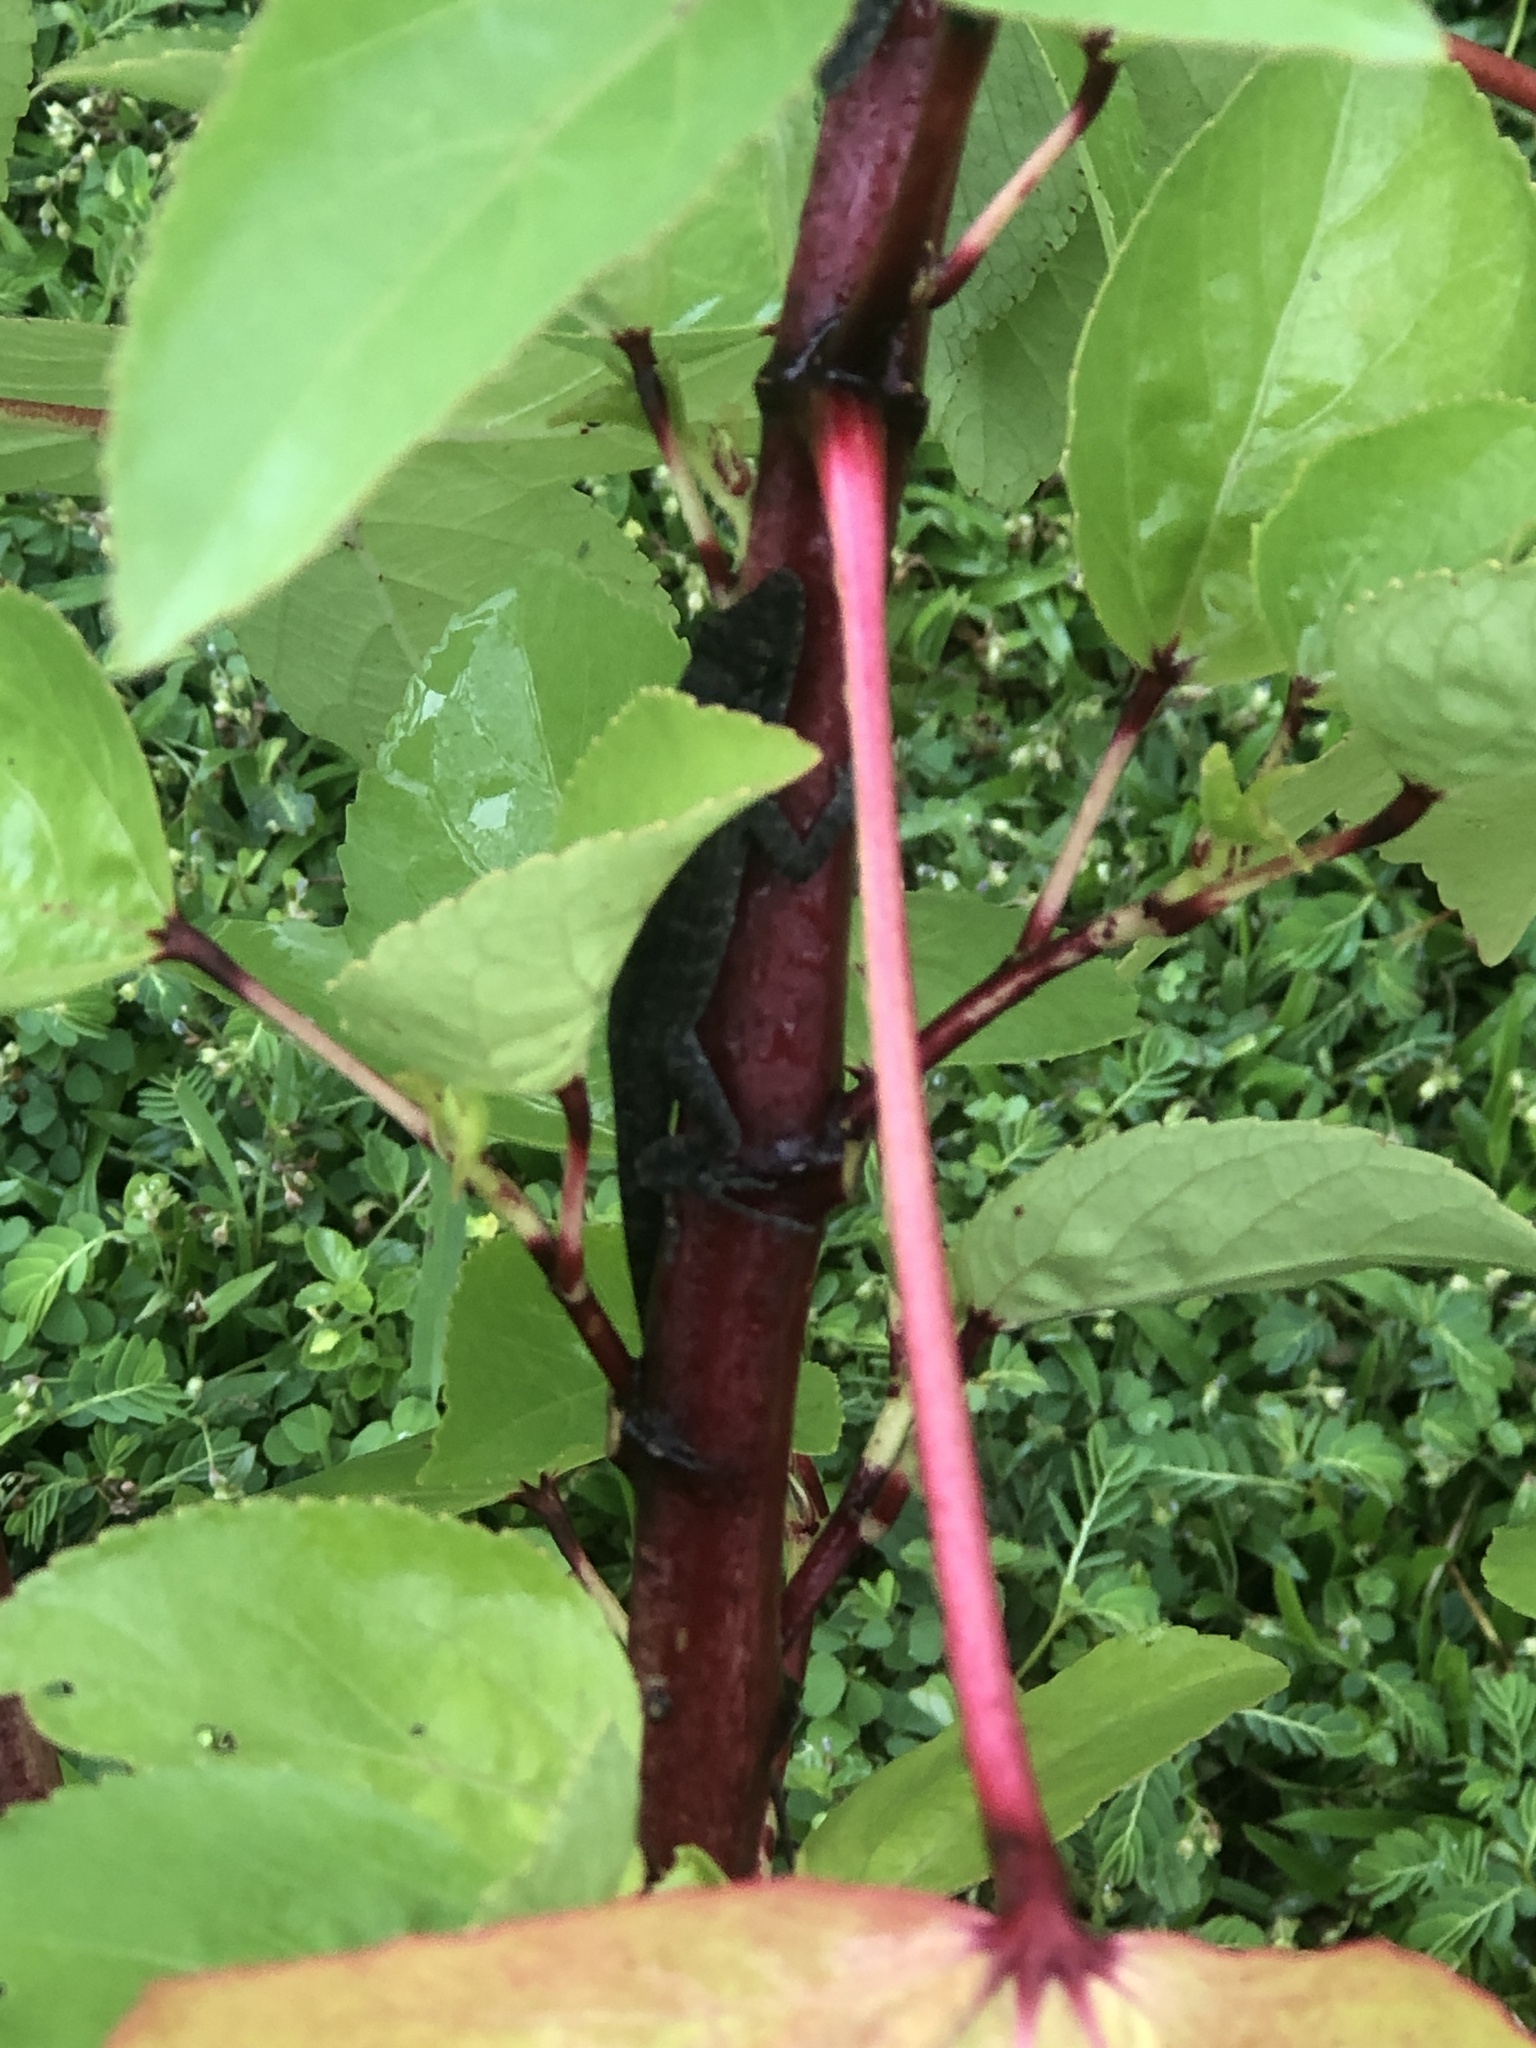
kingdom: Animalia
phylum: Chordata
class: Squamata
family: Dactyloidae
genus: Anolis
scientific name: Anolis sagrei
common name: Brown anole
